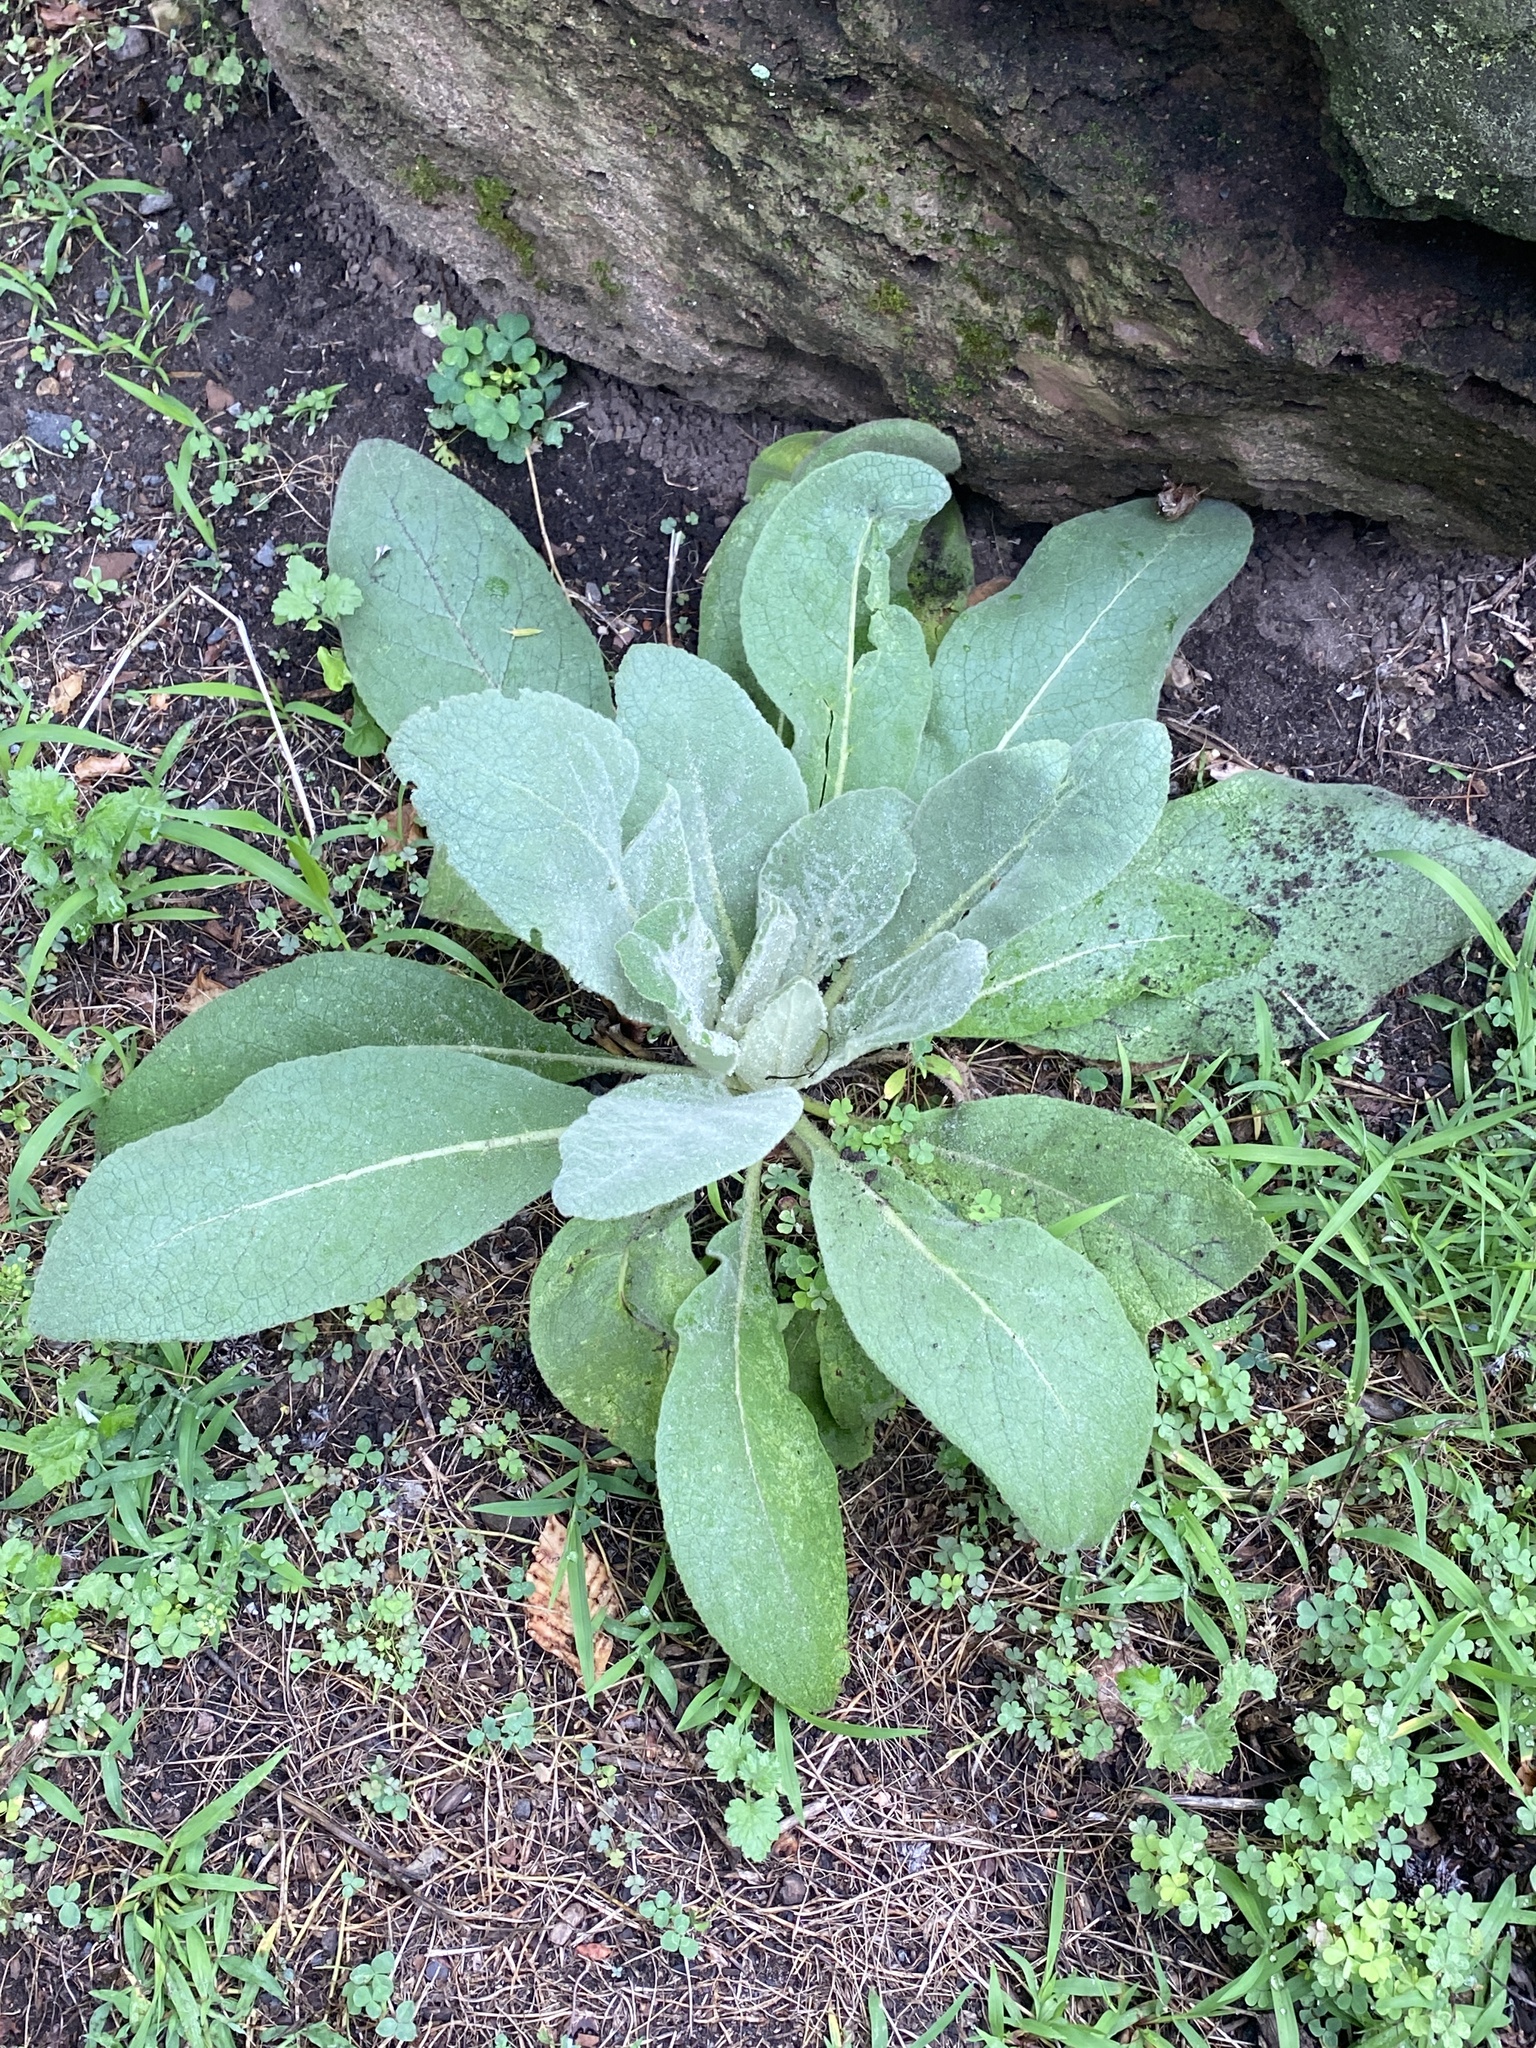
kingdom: Plantae
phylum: Tracheophyta
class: Magnoliopsida
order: Lamiales
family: Scrophulariaceae
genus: Verbascum
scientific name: Verbascum thapsus
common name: Common mullein
